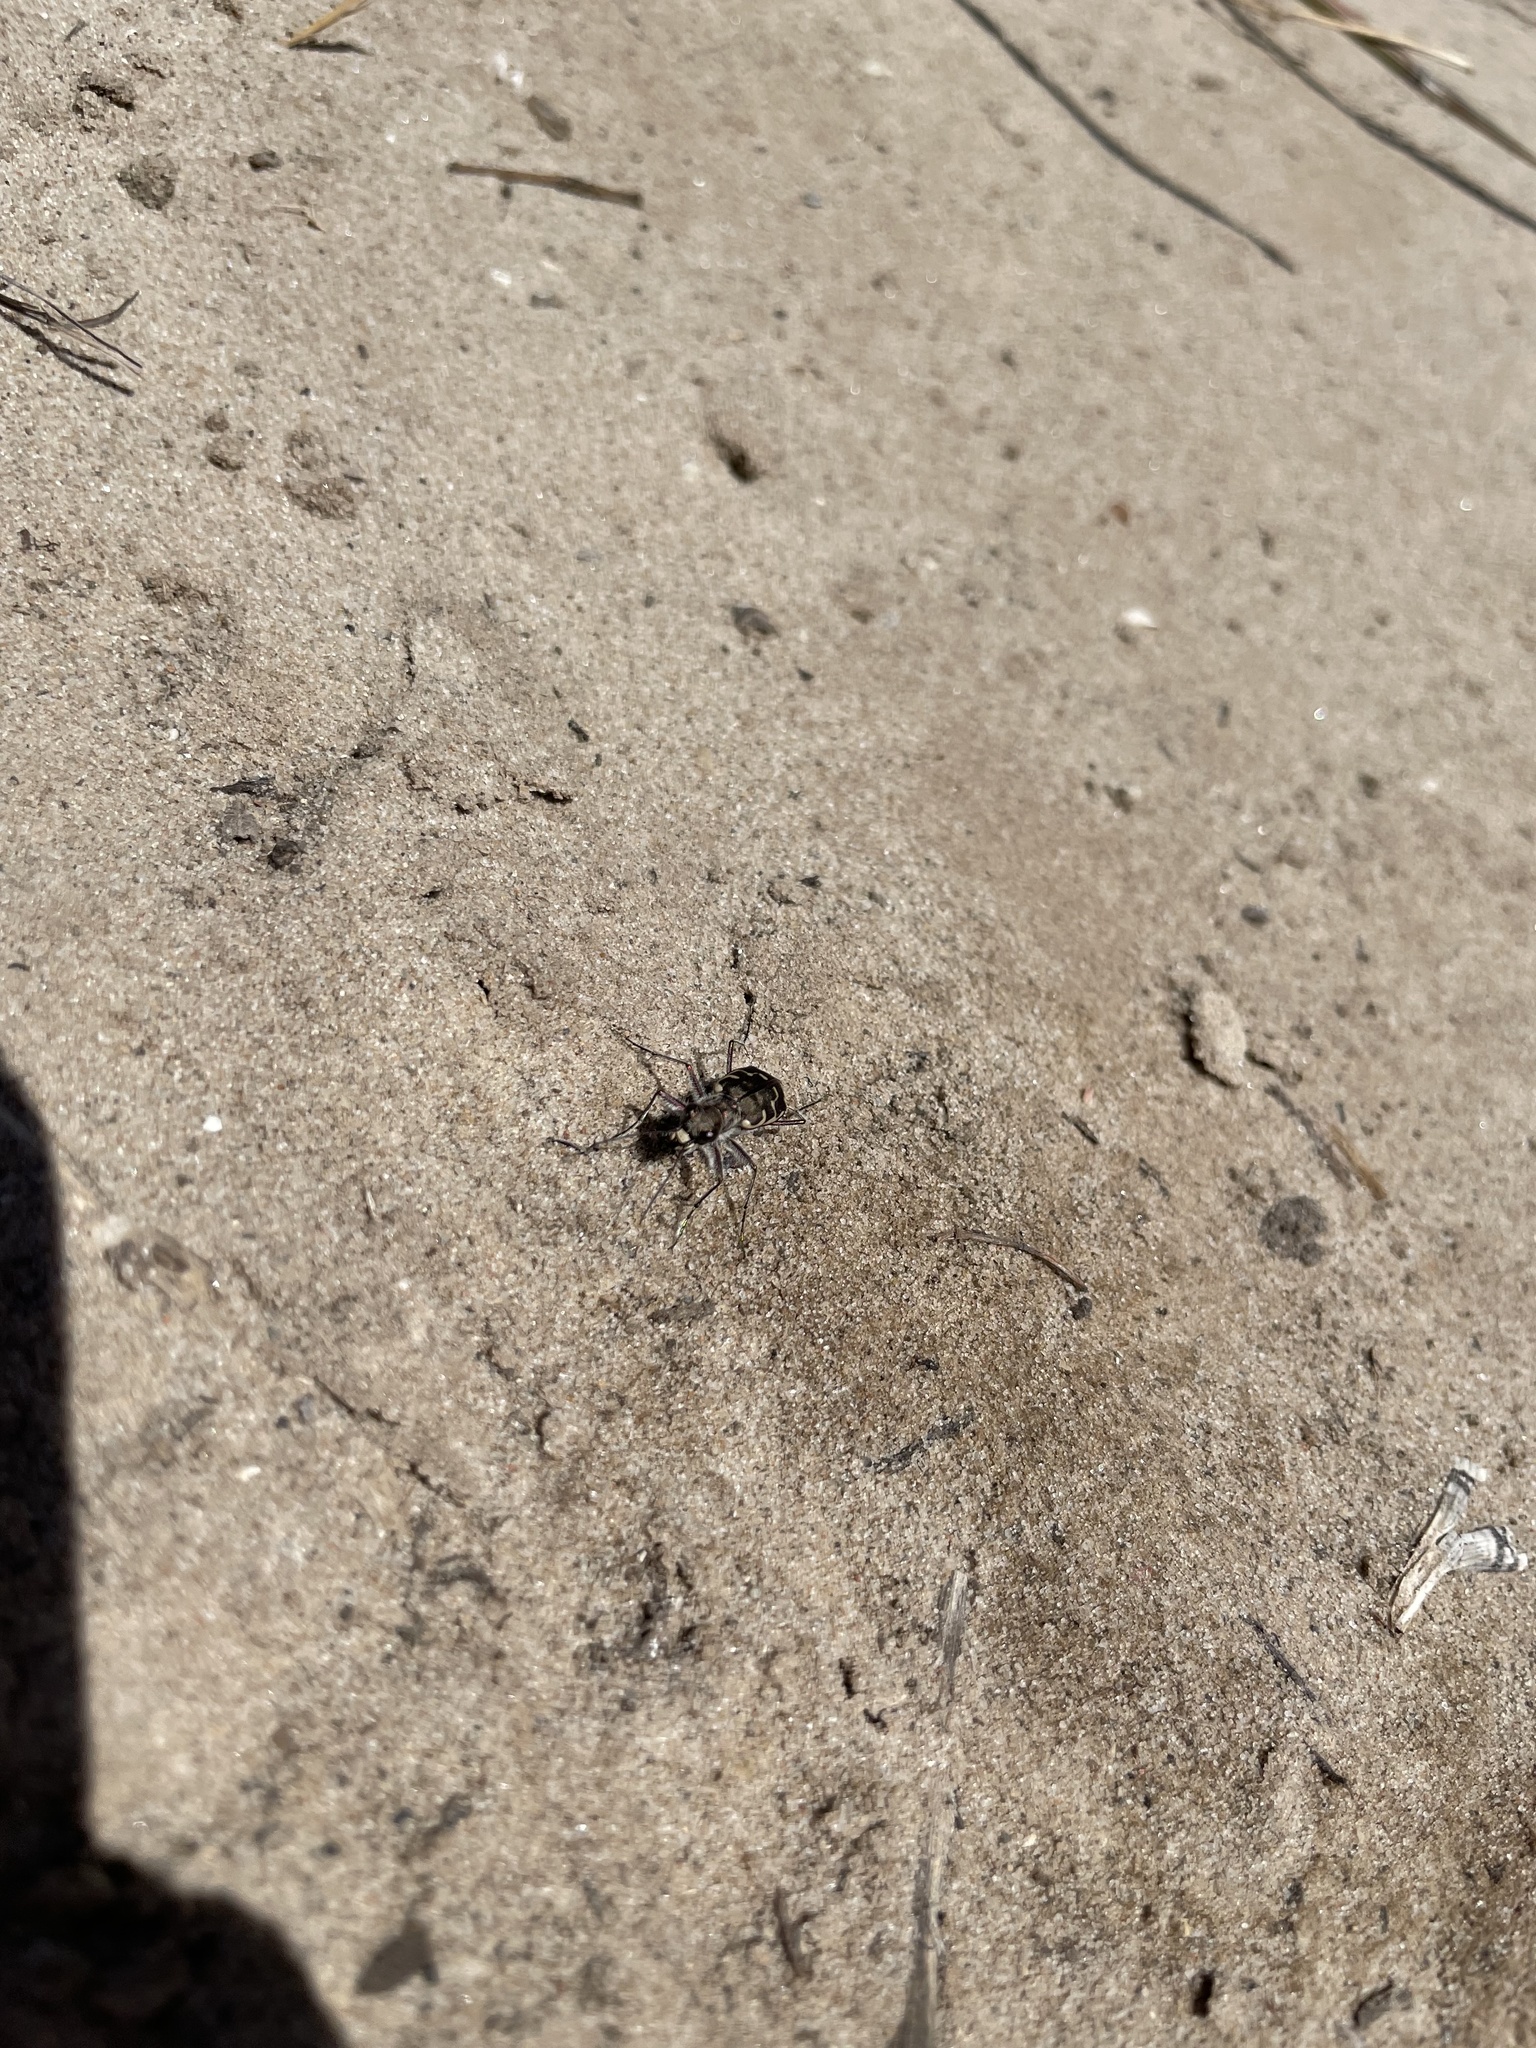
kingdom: Animalia
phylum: Arthropoda
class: Insecta
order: Coleoptera
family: Carabidae
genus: Cicindela
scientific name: Cicindela repanda
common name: Bronzed tiger beetle
